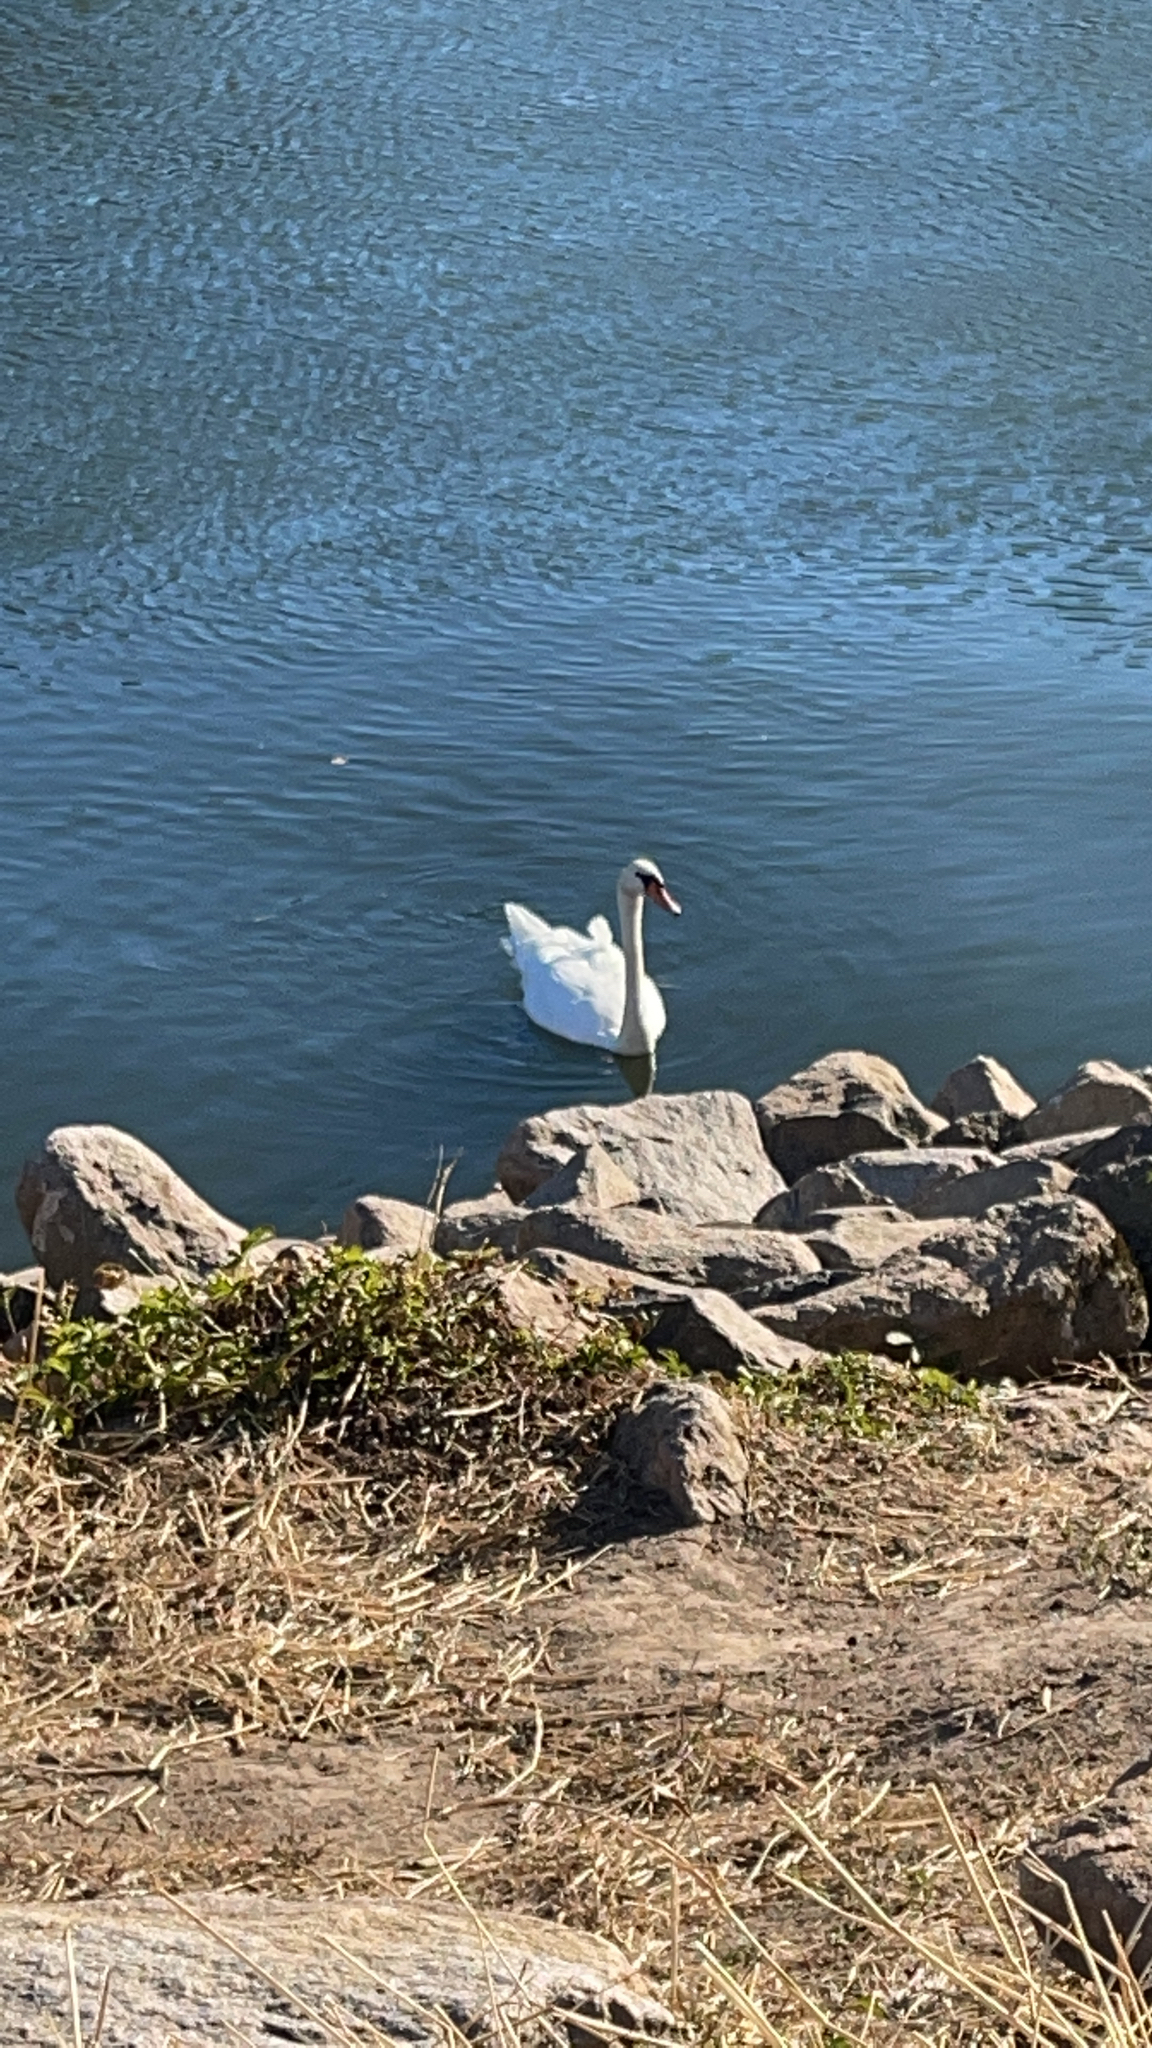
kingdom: Animalia
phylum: Chordata
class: Aves
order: Anseriformes
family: Anatidae
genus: Cygnus
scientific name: Cygnus olor
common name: Mute swan
